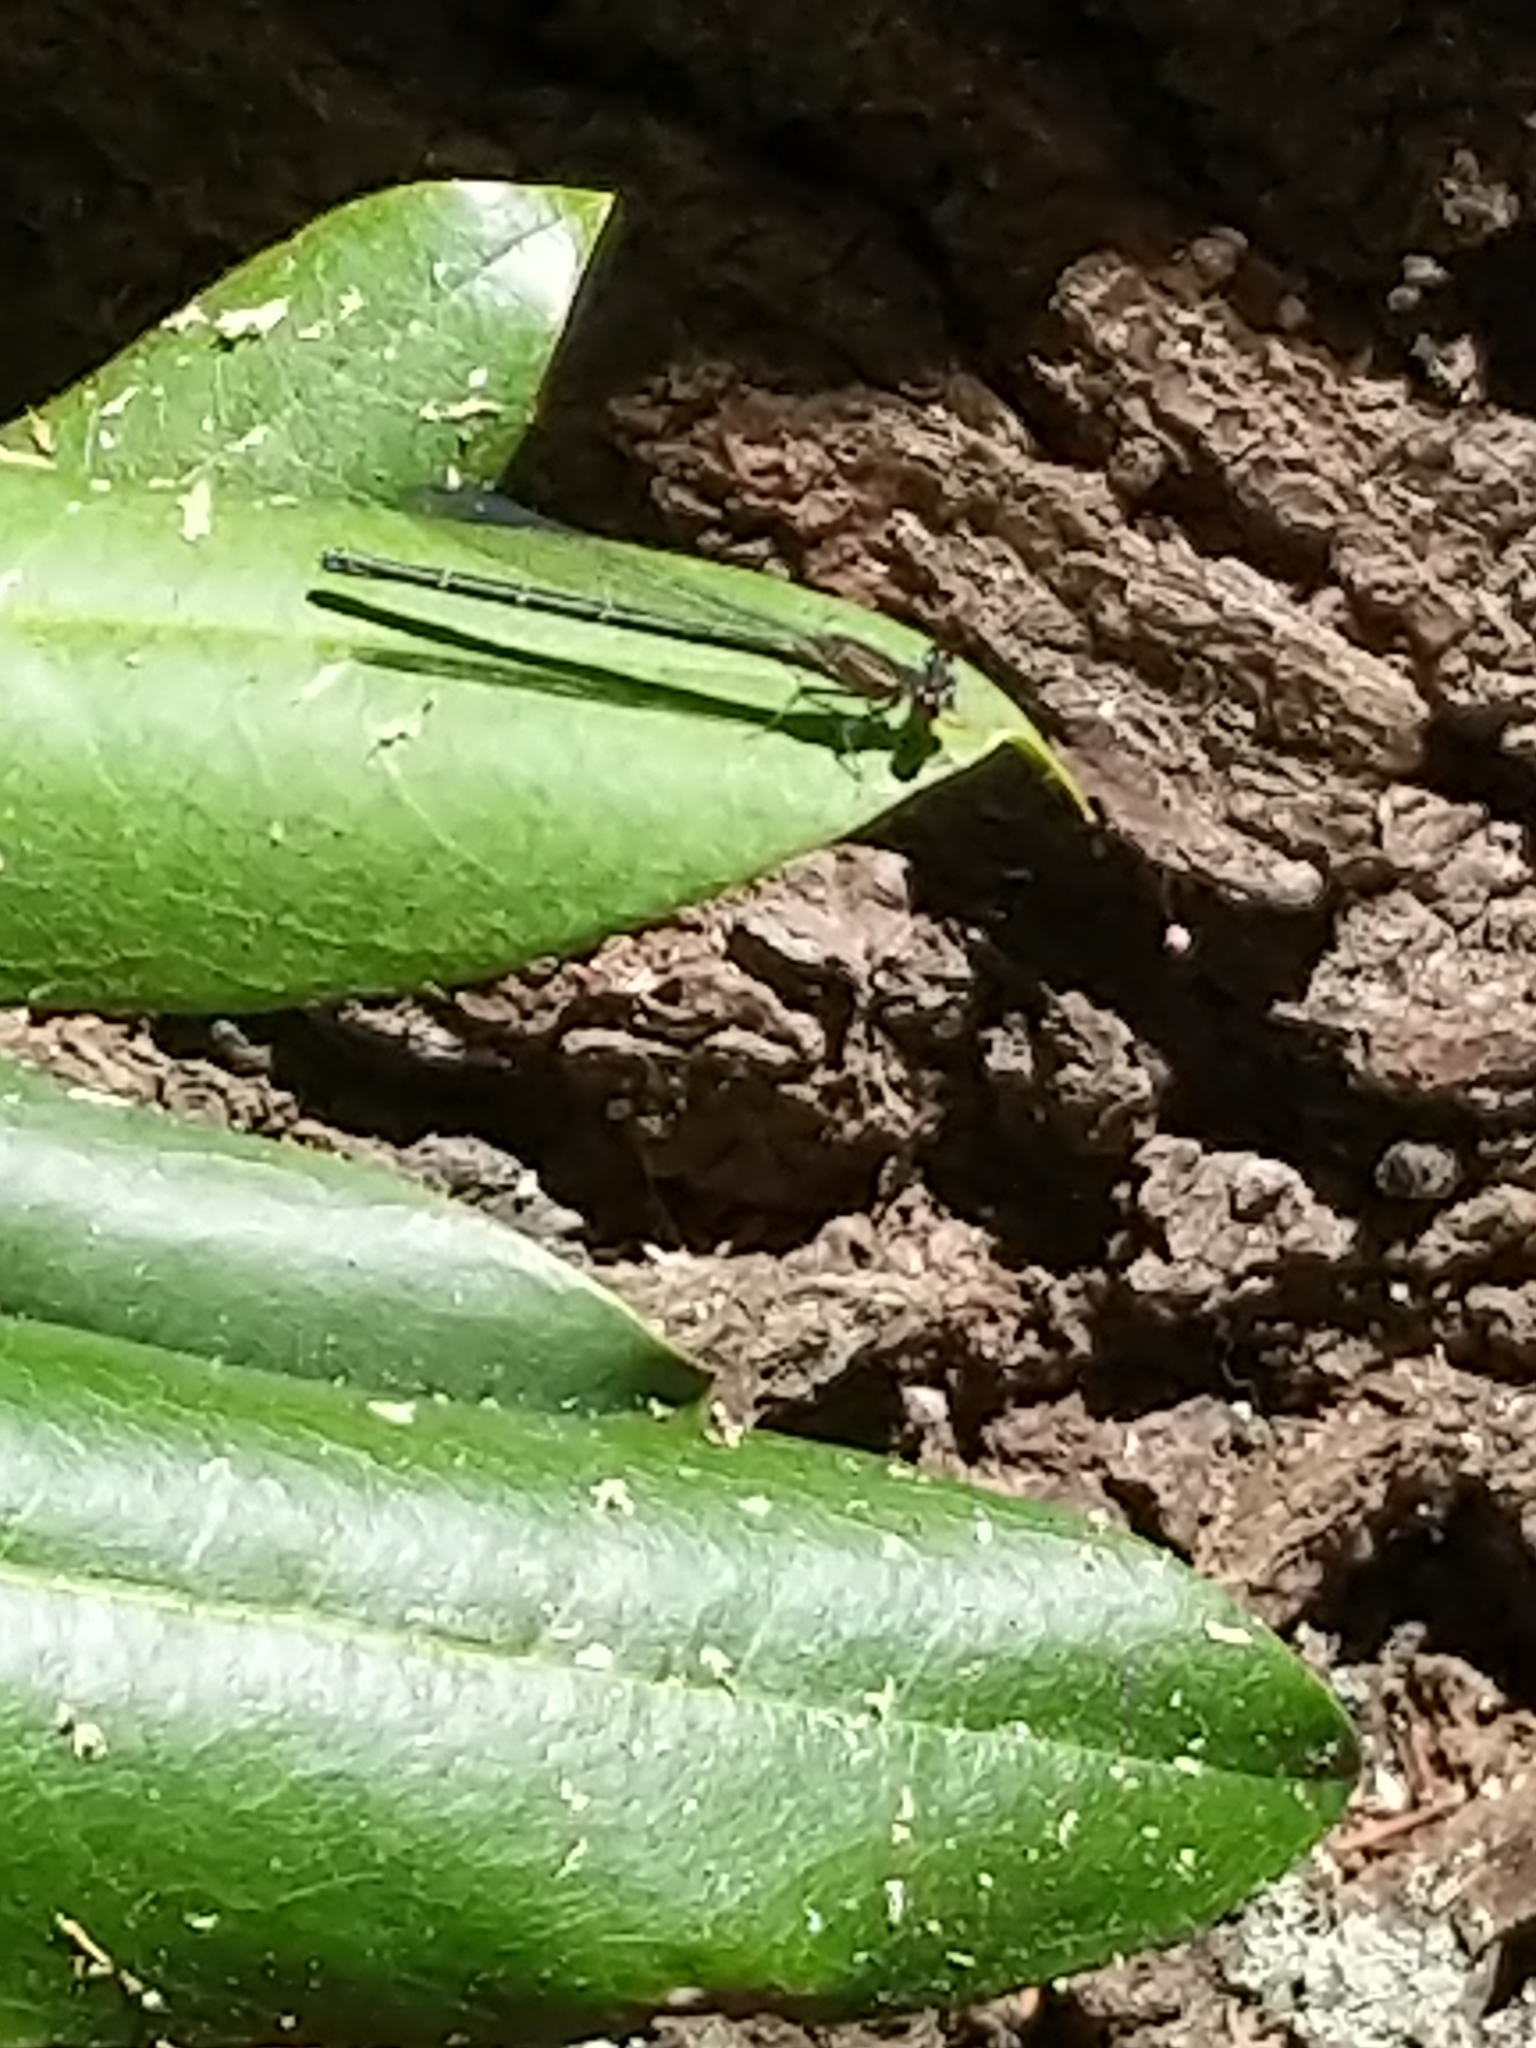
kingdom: Animalia
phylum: Arthropoda
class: Insecta
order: Odonata
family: Coenagrionidae
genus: Argia
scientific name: Argia translata
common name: Dusky dancer
